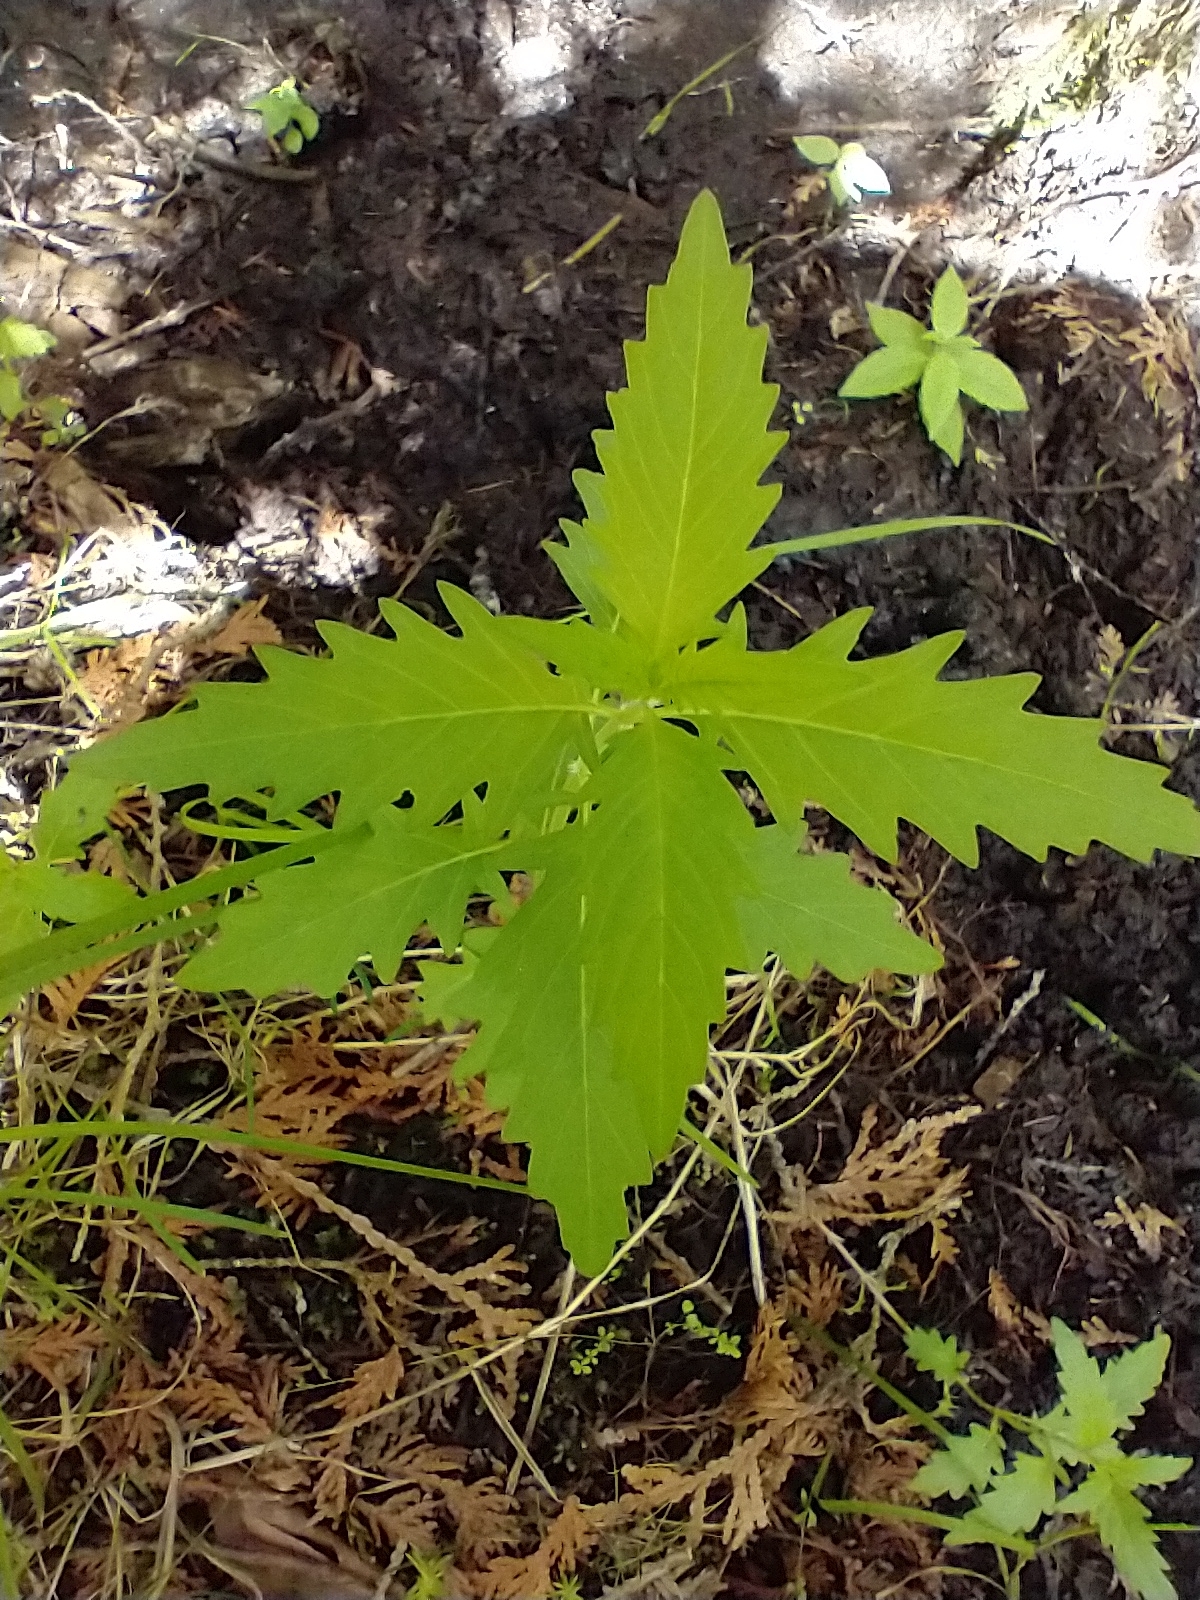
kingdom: Plantae
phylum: Tracheophyta
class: Magnoliopsida
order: Lamiales
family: Lamiaceae
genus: Lycopus
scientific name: Lycopus americanus
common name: American bugleweed
